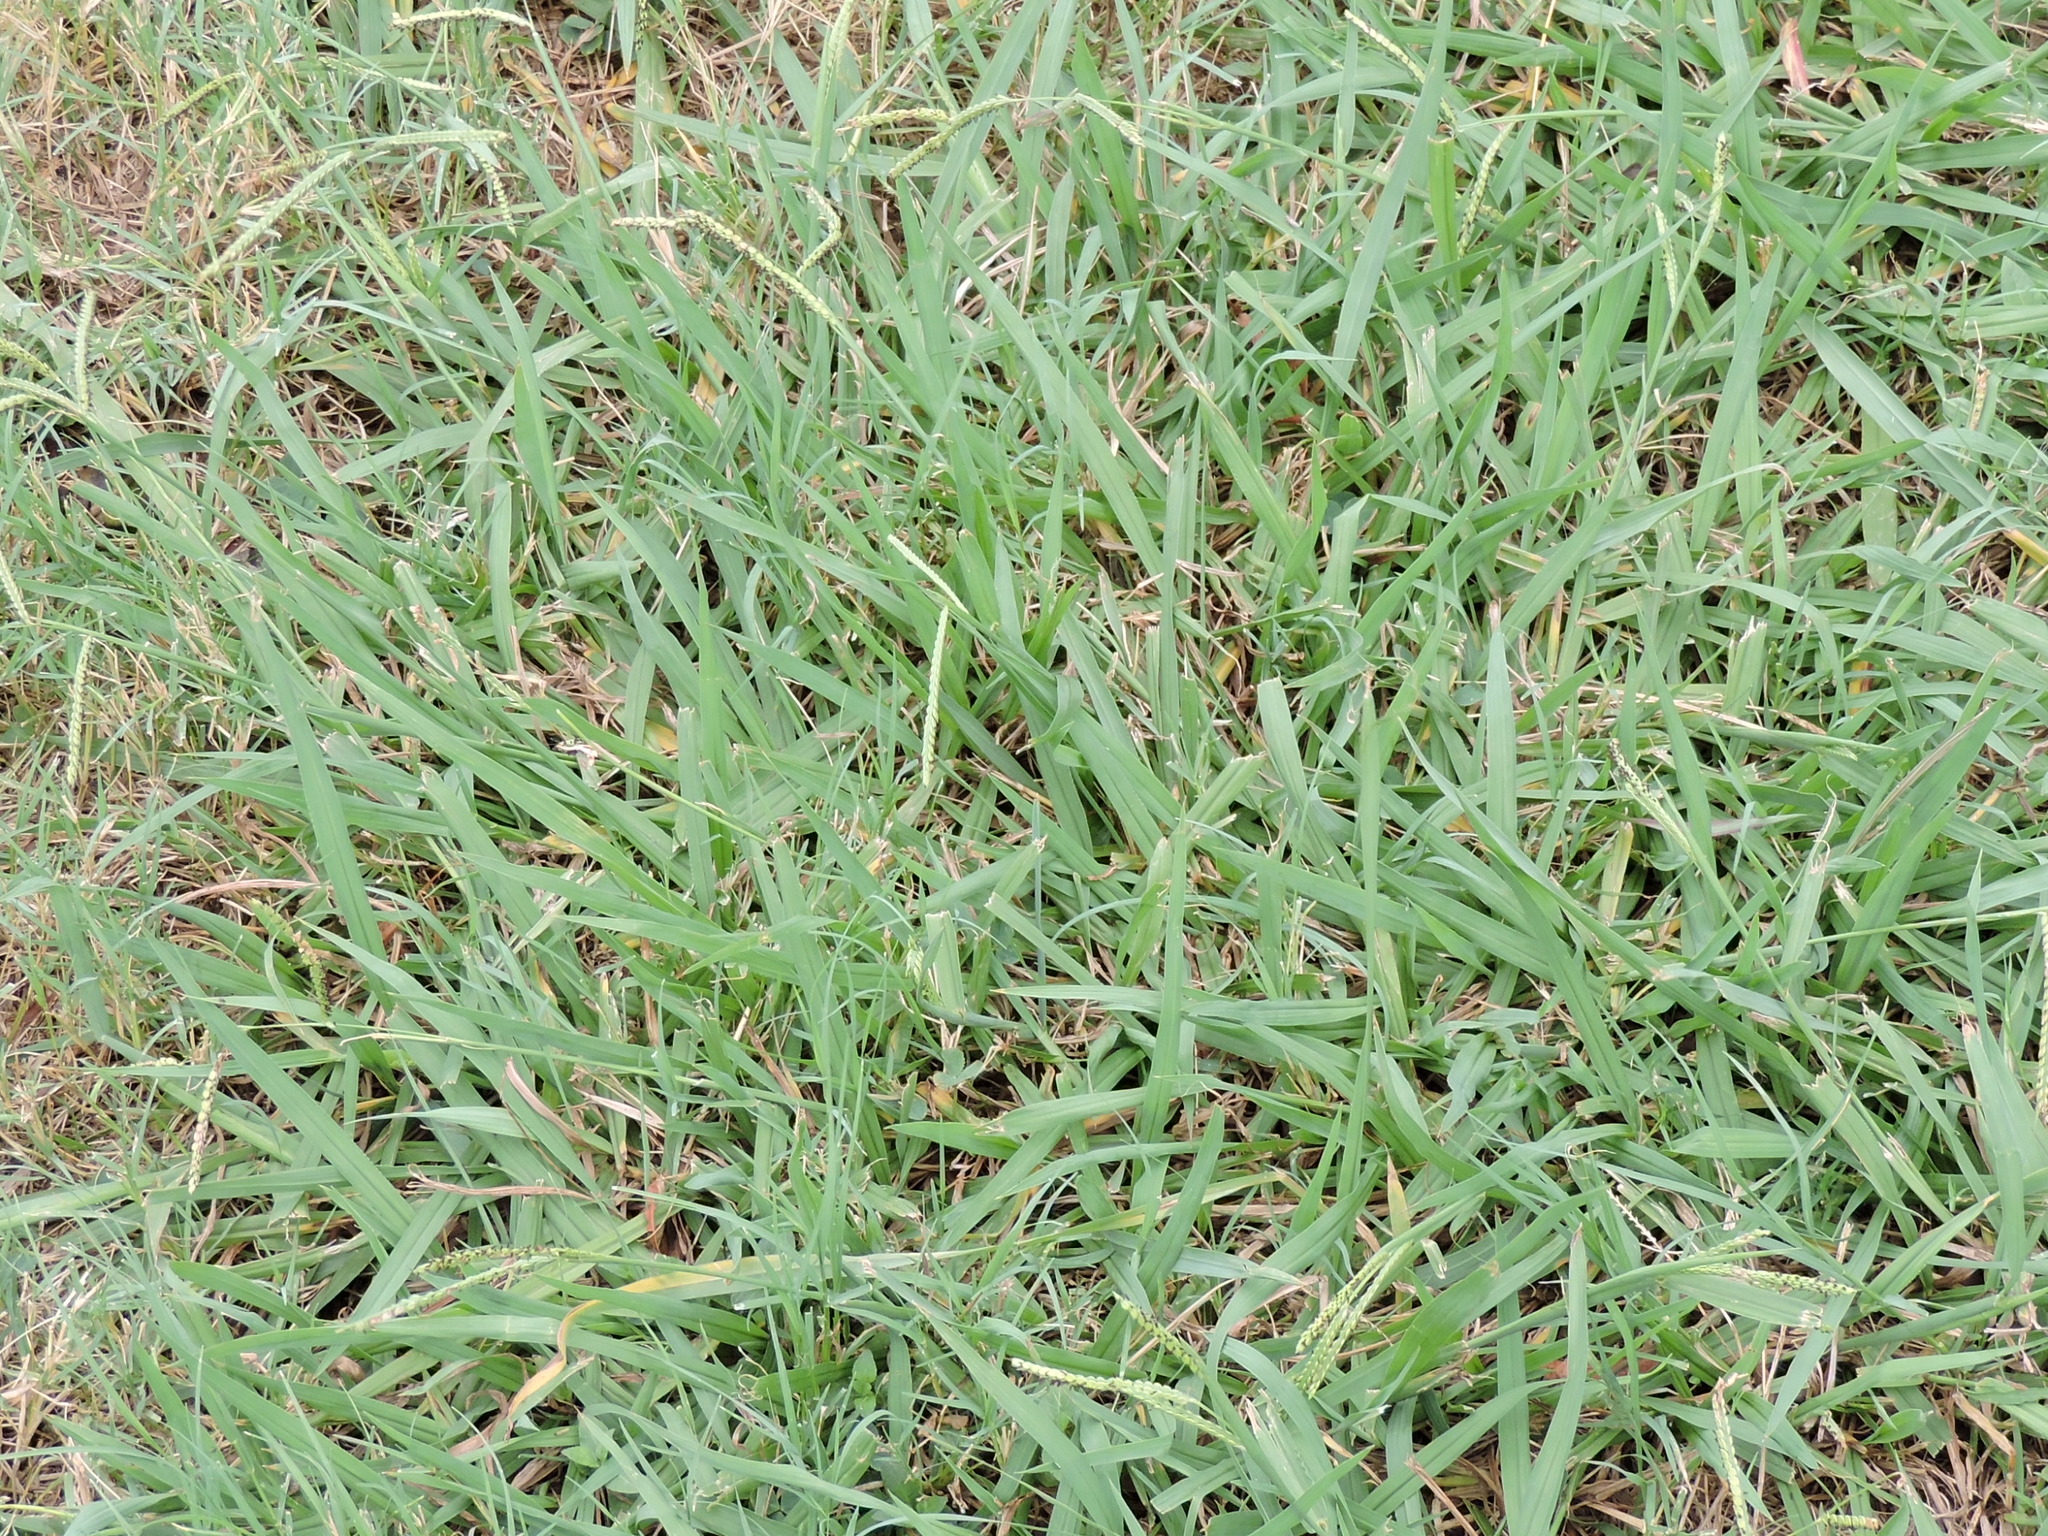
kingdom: Plantae
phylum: Tracheophyta
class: Liliopsida
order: Poales
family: Poaceae
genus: Paspalum
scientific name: Paspalum dilatatum
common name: Dallisgrass
